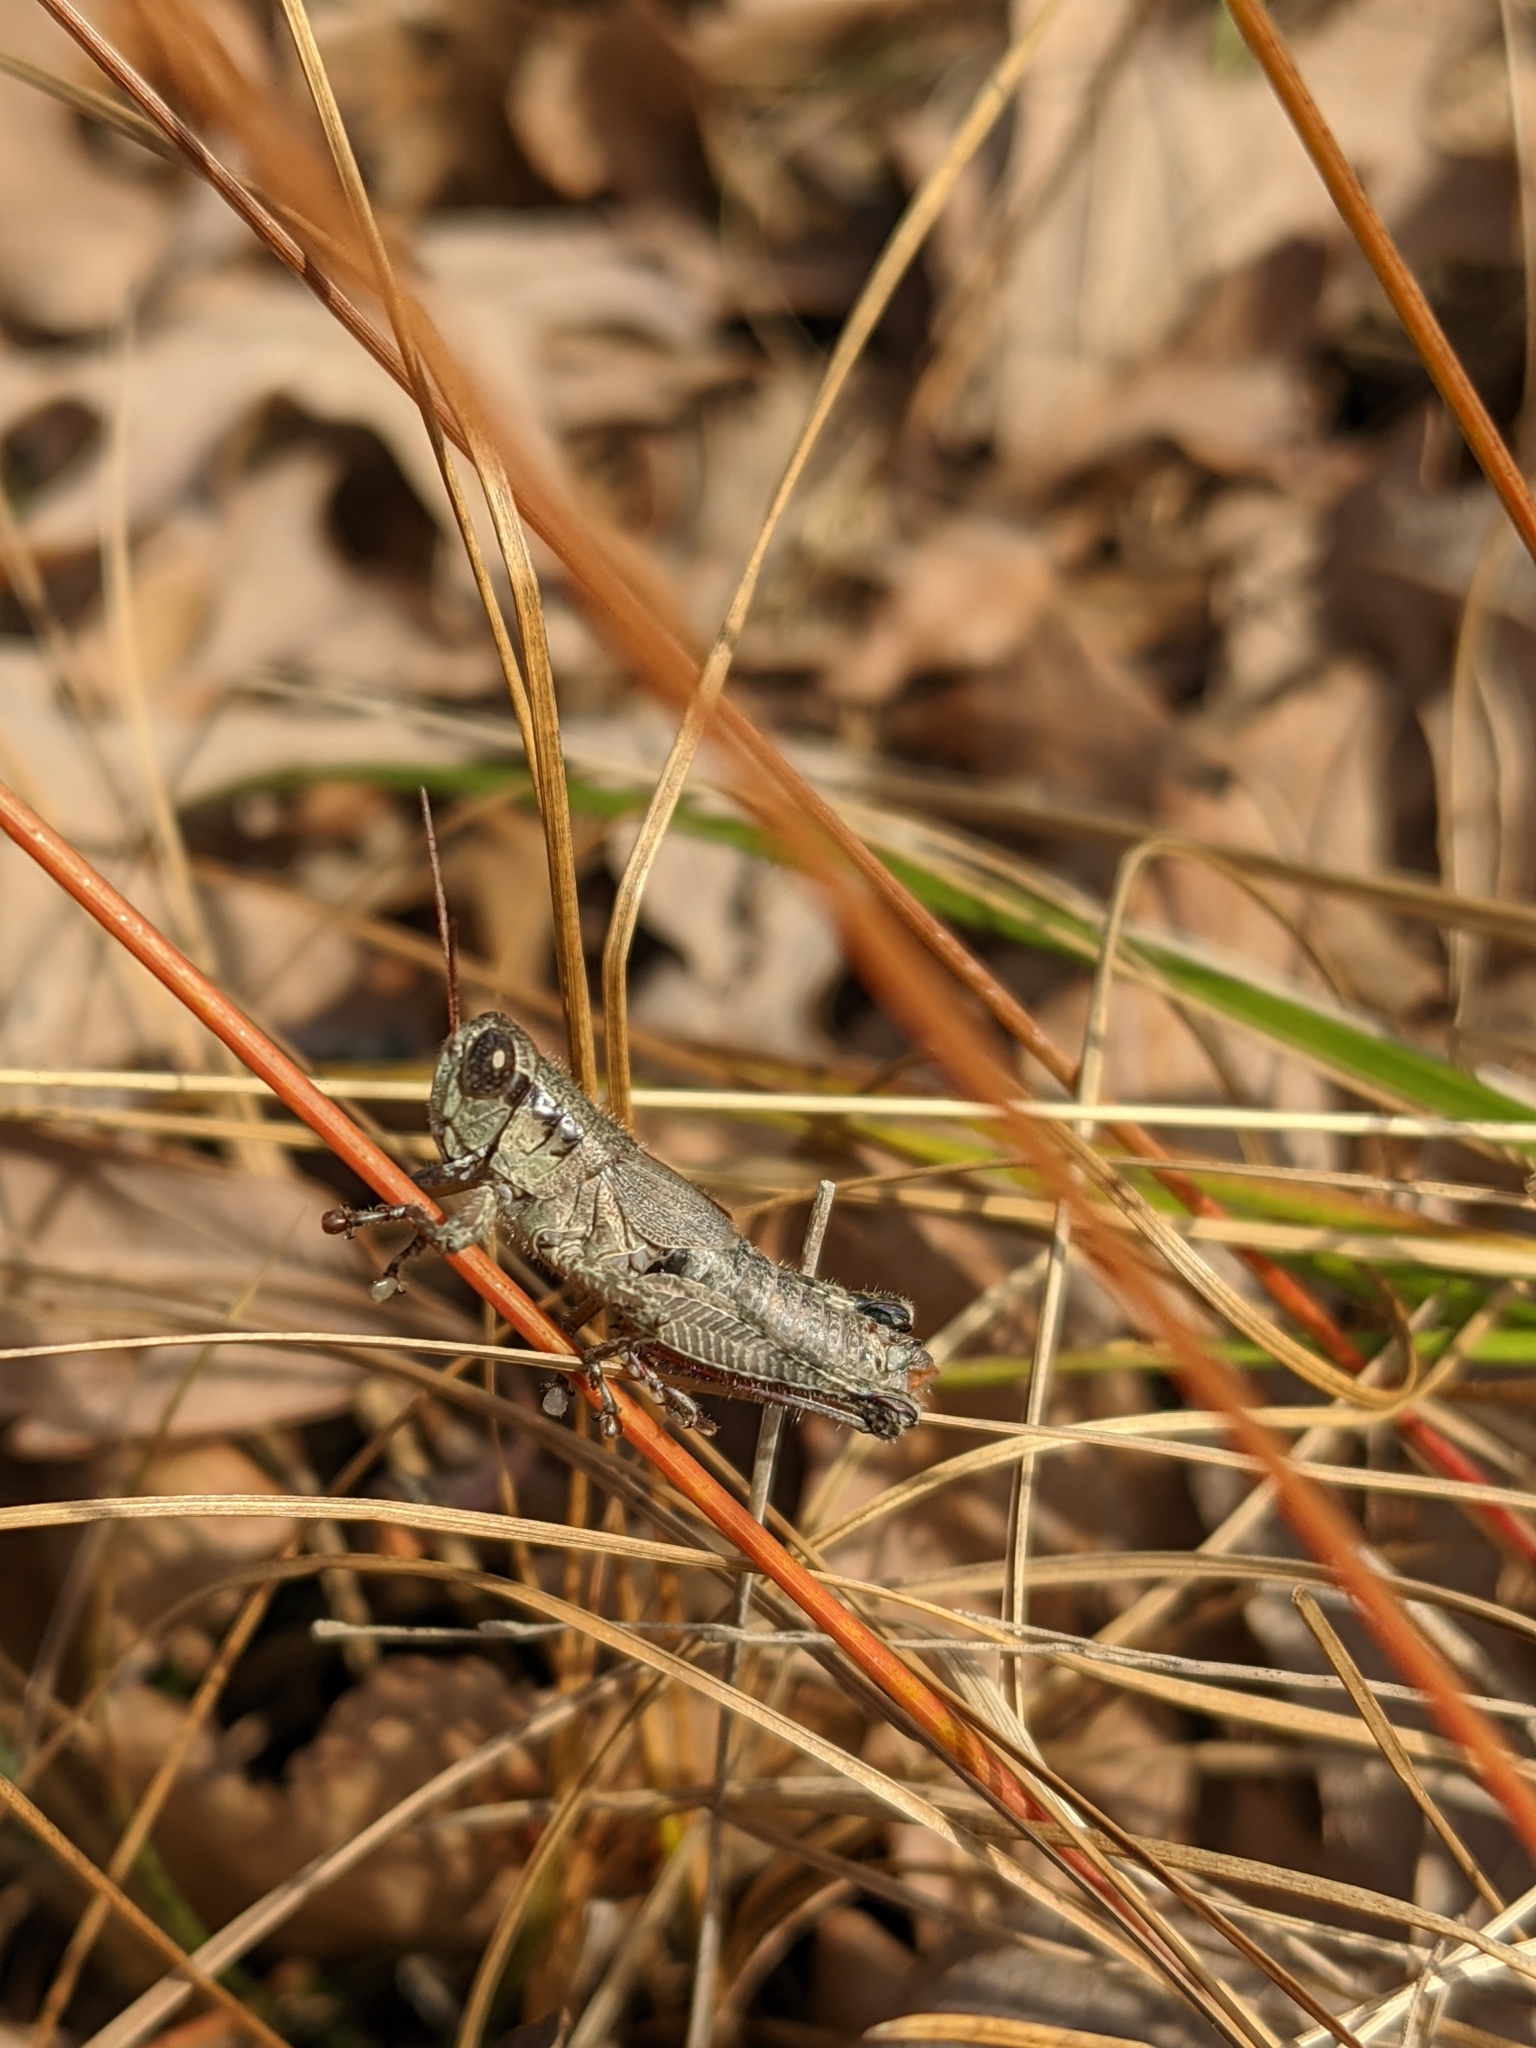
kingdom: Animalia
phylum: Arthropoda
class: Insecta
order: Orthoptera
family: Acrididae
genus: Melanoplus
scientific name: Melanoplus scudderi
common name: Scudder's short-winged locust
